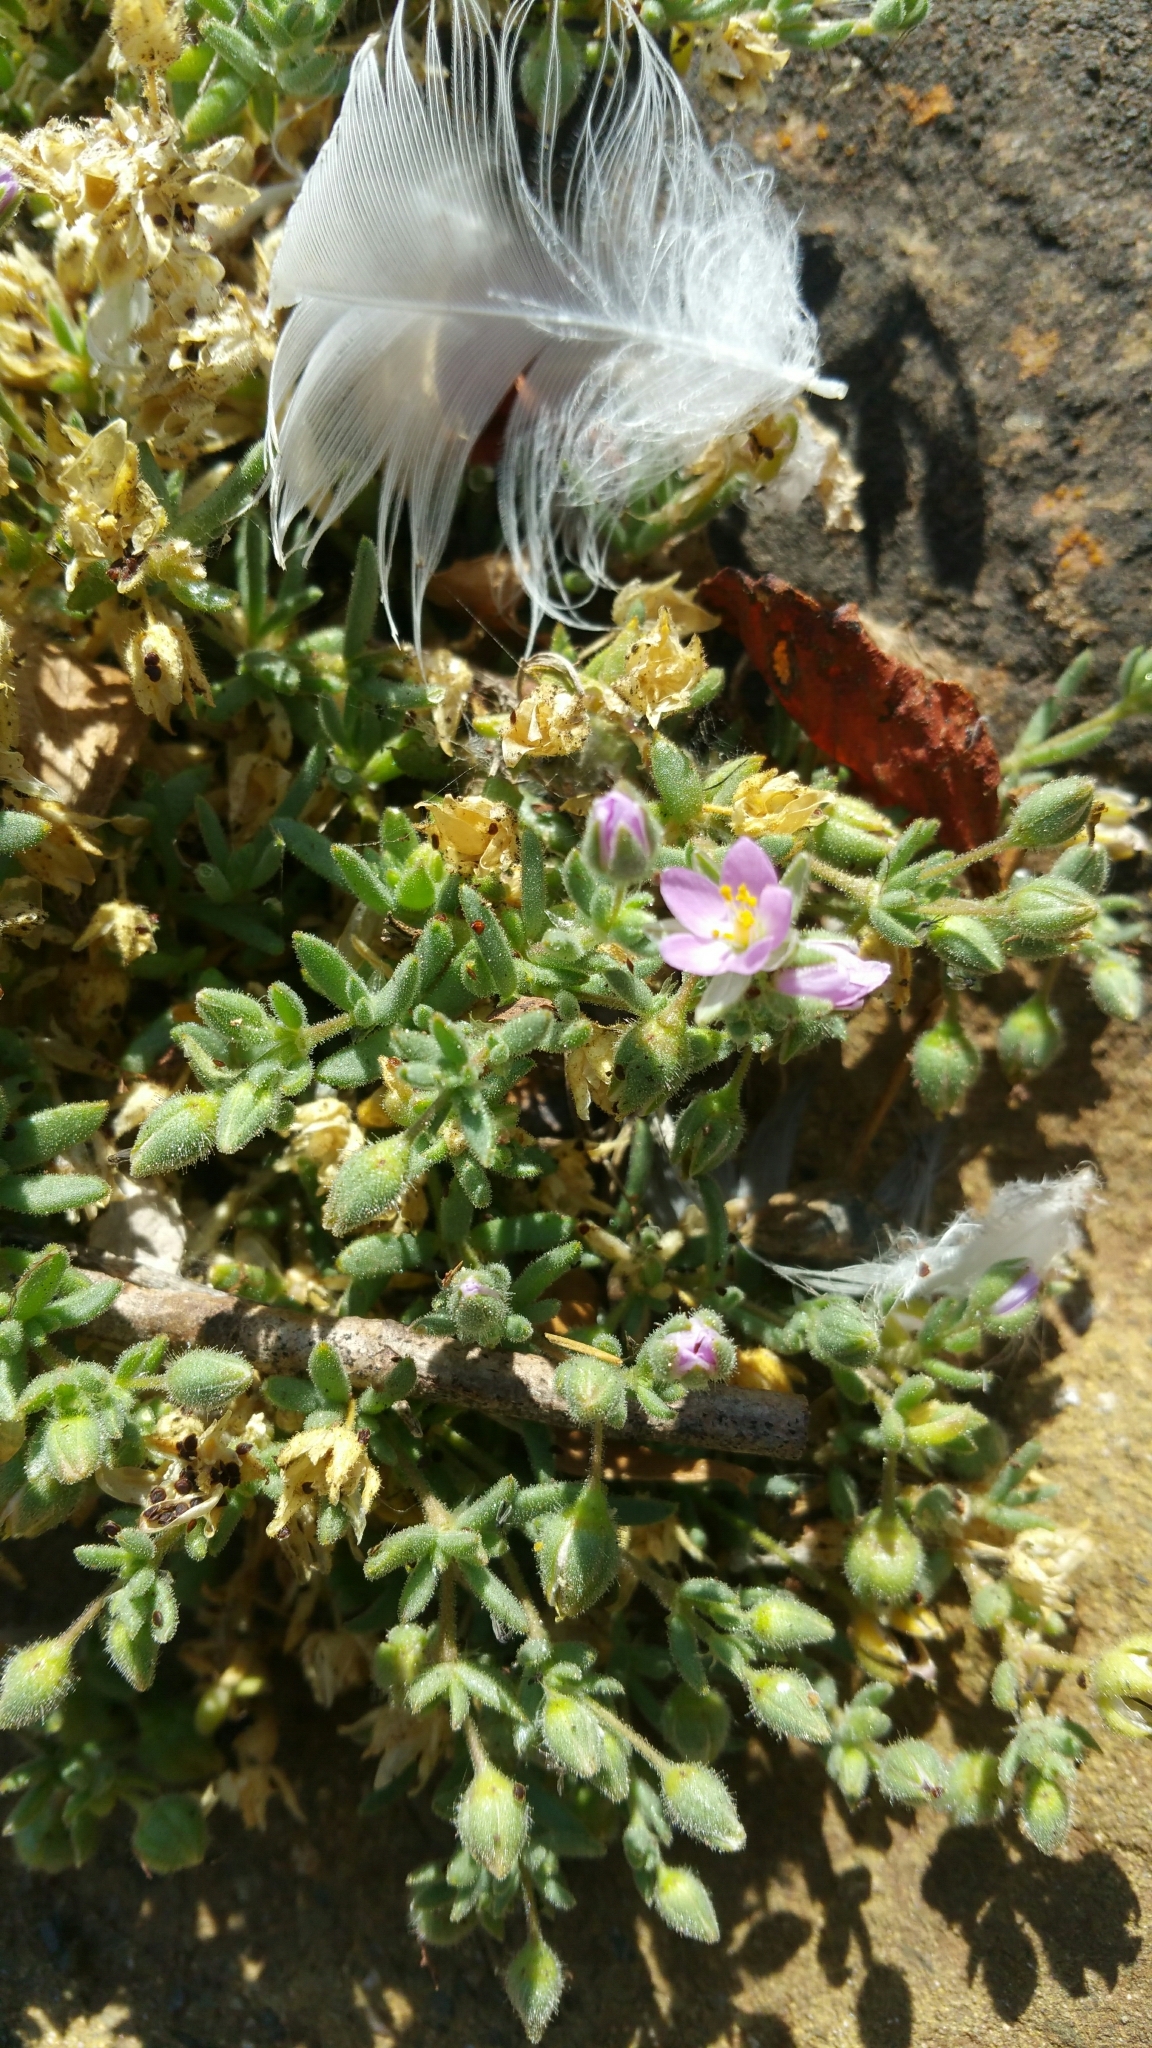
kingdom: Plantae
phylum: Tracheophyta
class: Magnoliopsida
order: Caryophyllales
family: Caryophyllaceae
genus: Spergularia
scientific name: Spergularia macrotheca
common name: Beach sand-spurrey
